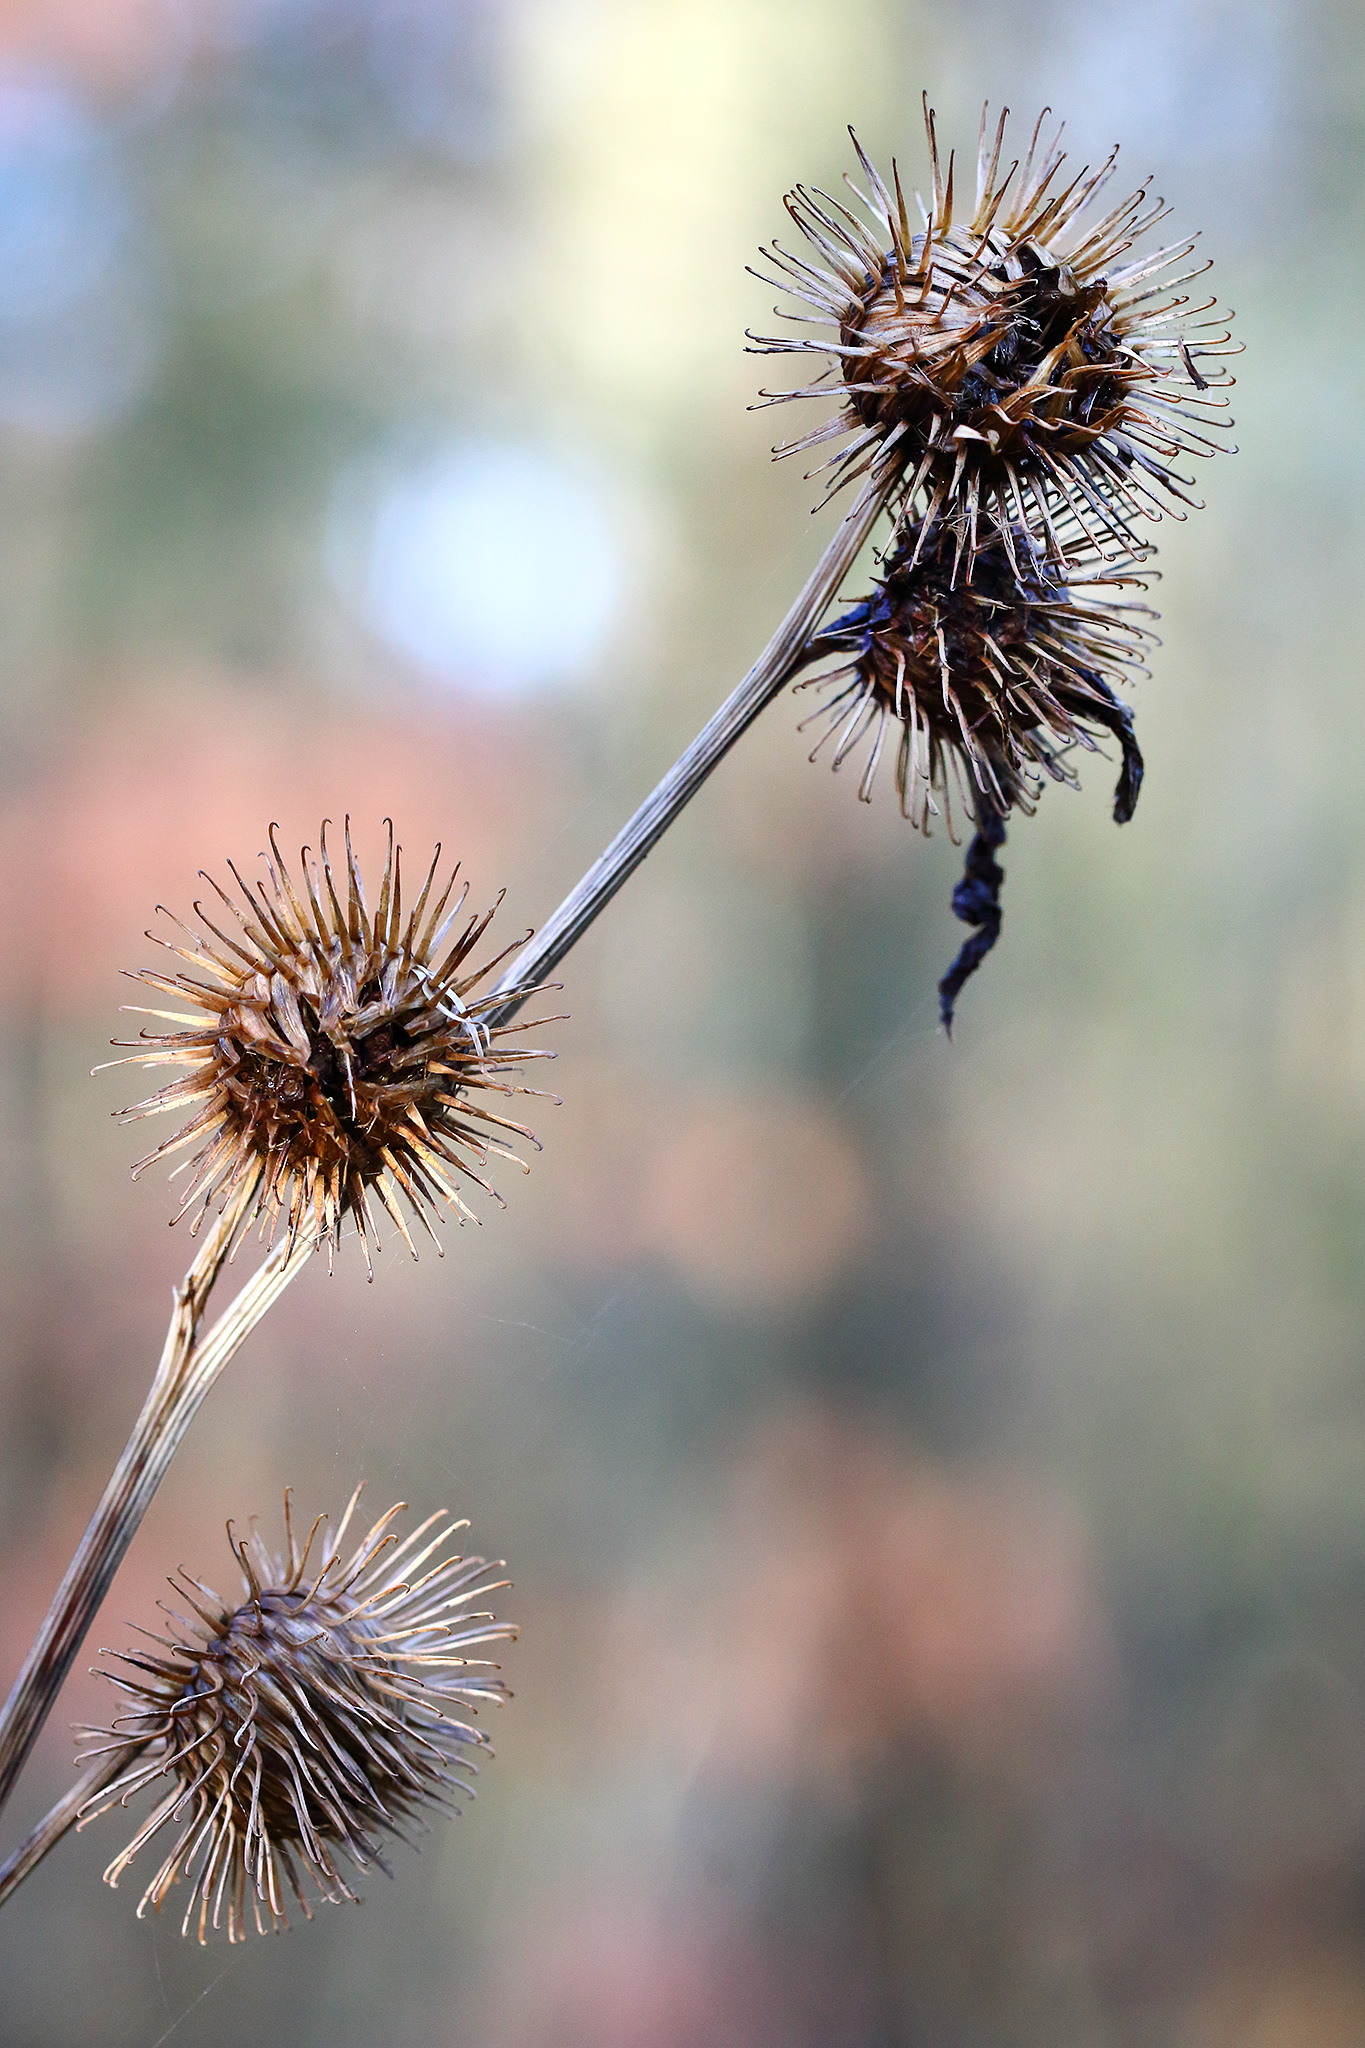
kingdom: Plantae
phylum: Tracheophyta
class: Magnoliopsida
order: Asterales
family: Asteraceae
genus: Arctium
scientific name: Arctium minus
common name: Lesser burdock
